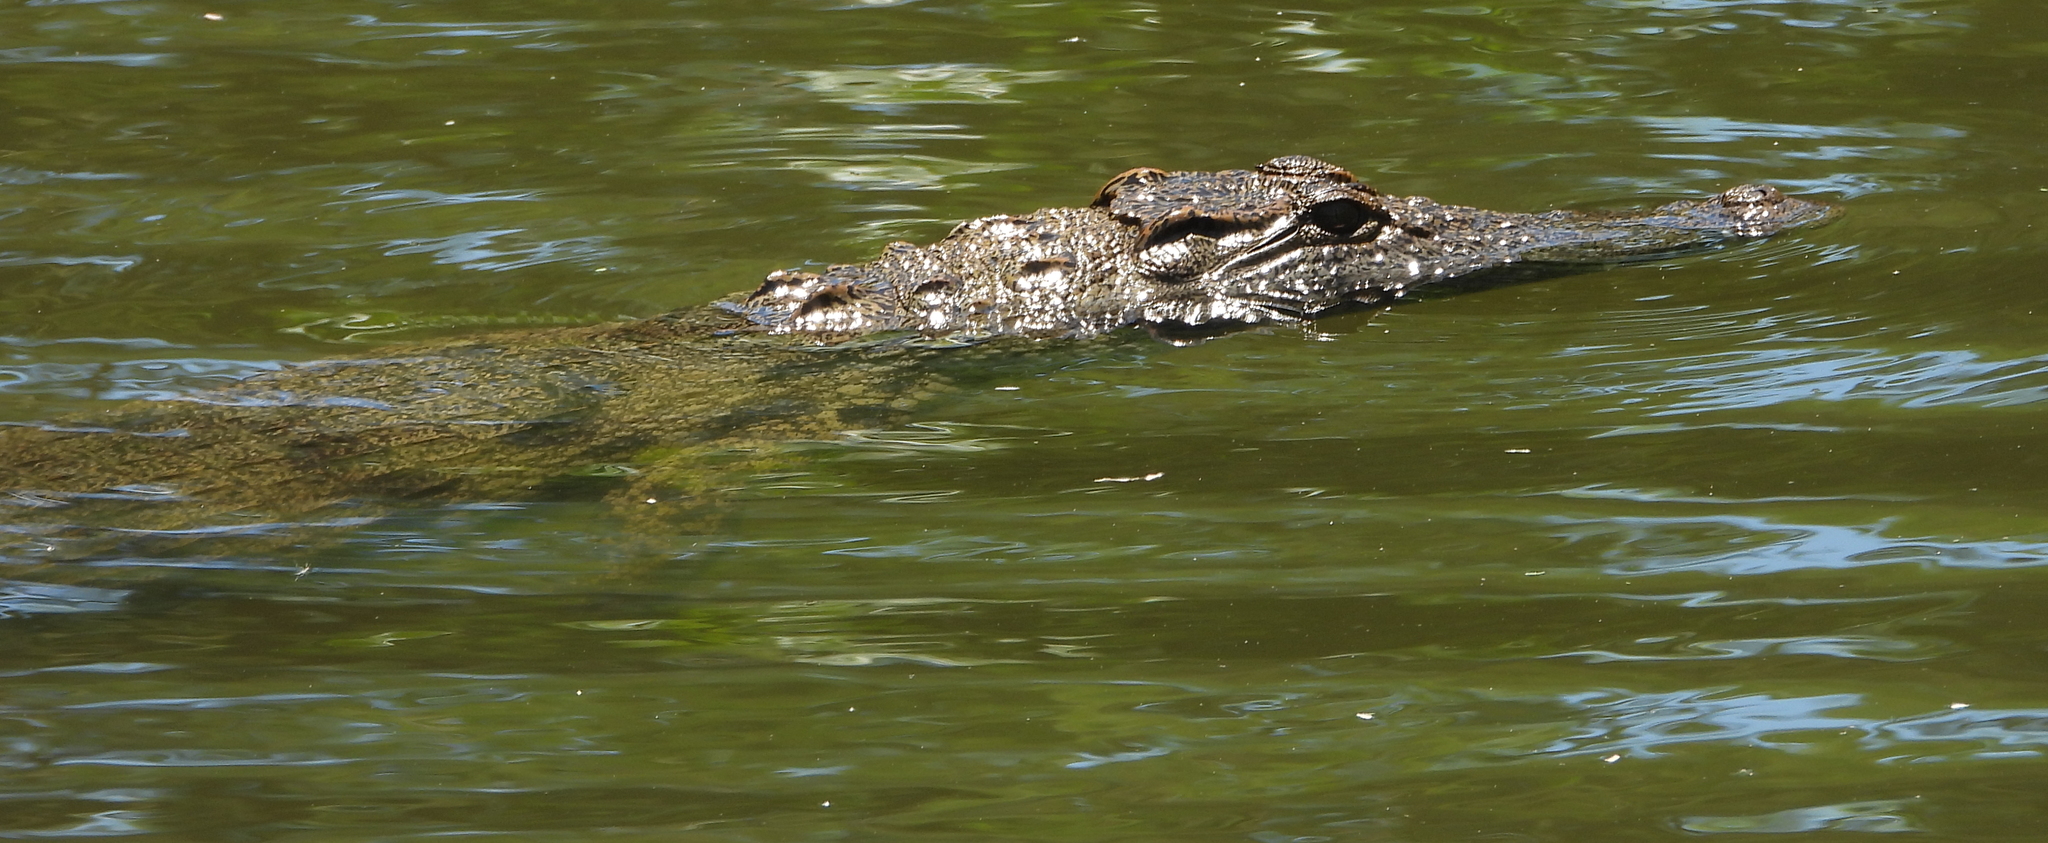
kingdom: Animalia
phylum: Chordata
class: Crocodylia
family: Crocodylidae
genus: Crocodylus
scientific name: Crocodylus niloticus
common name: Nile crocodile
